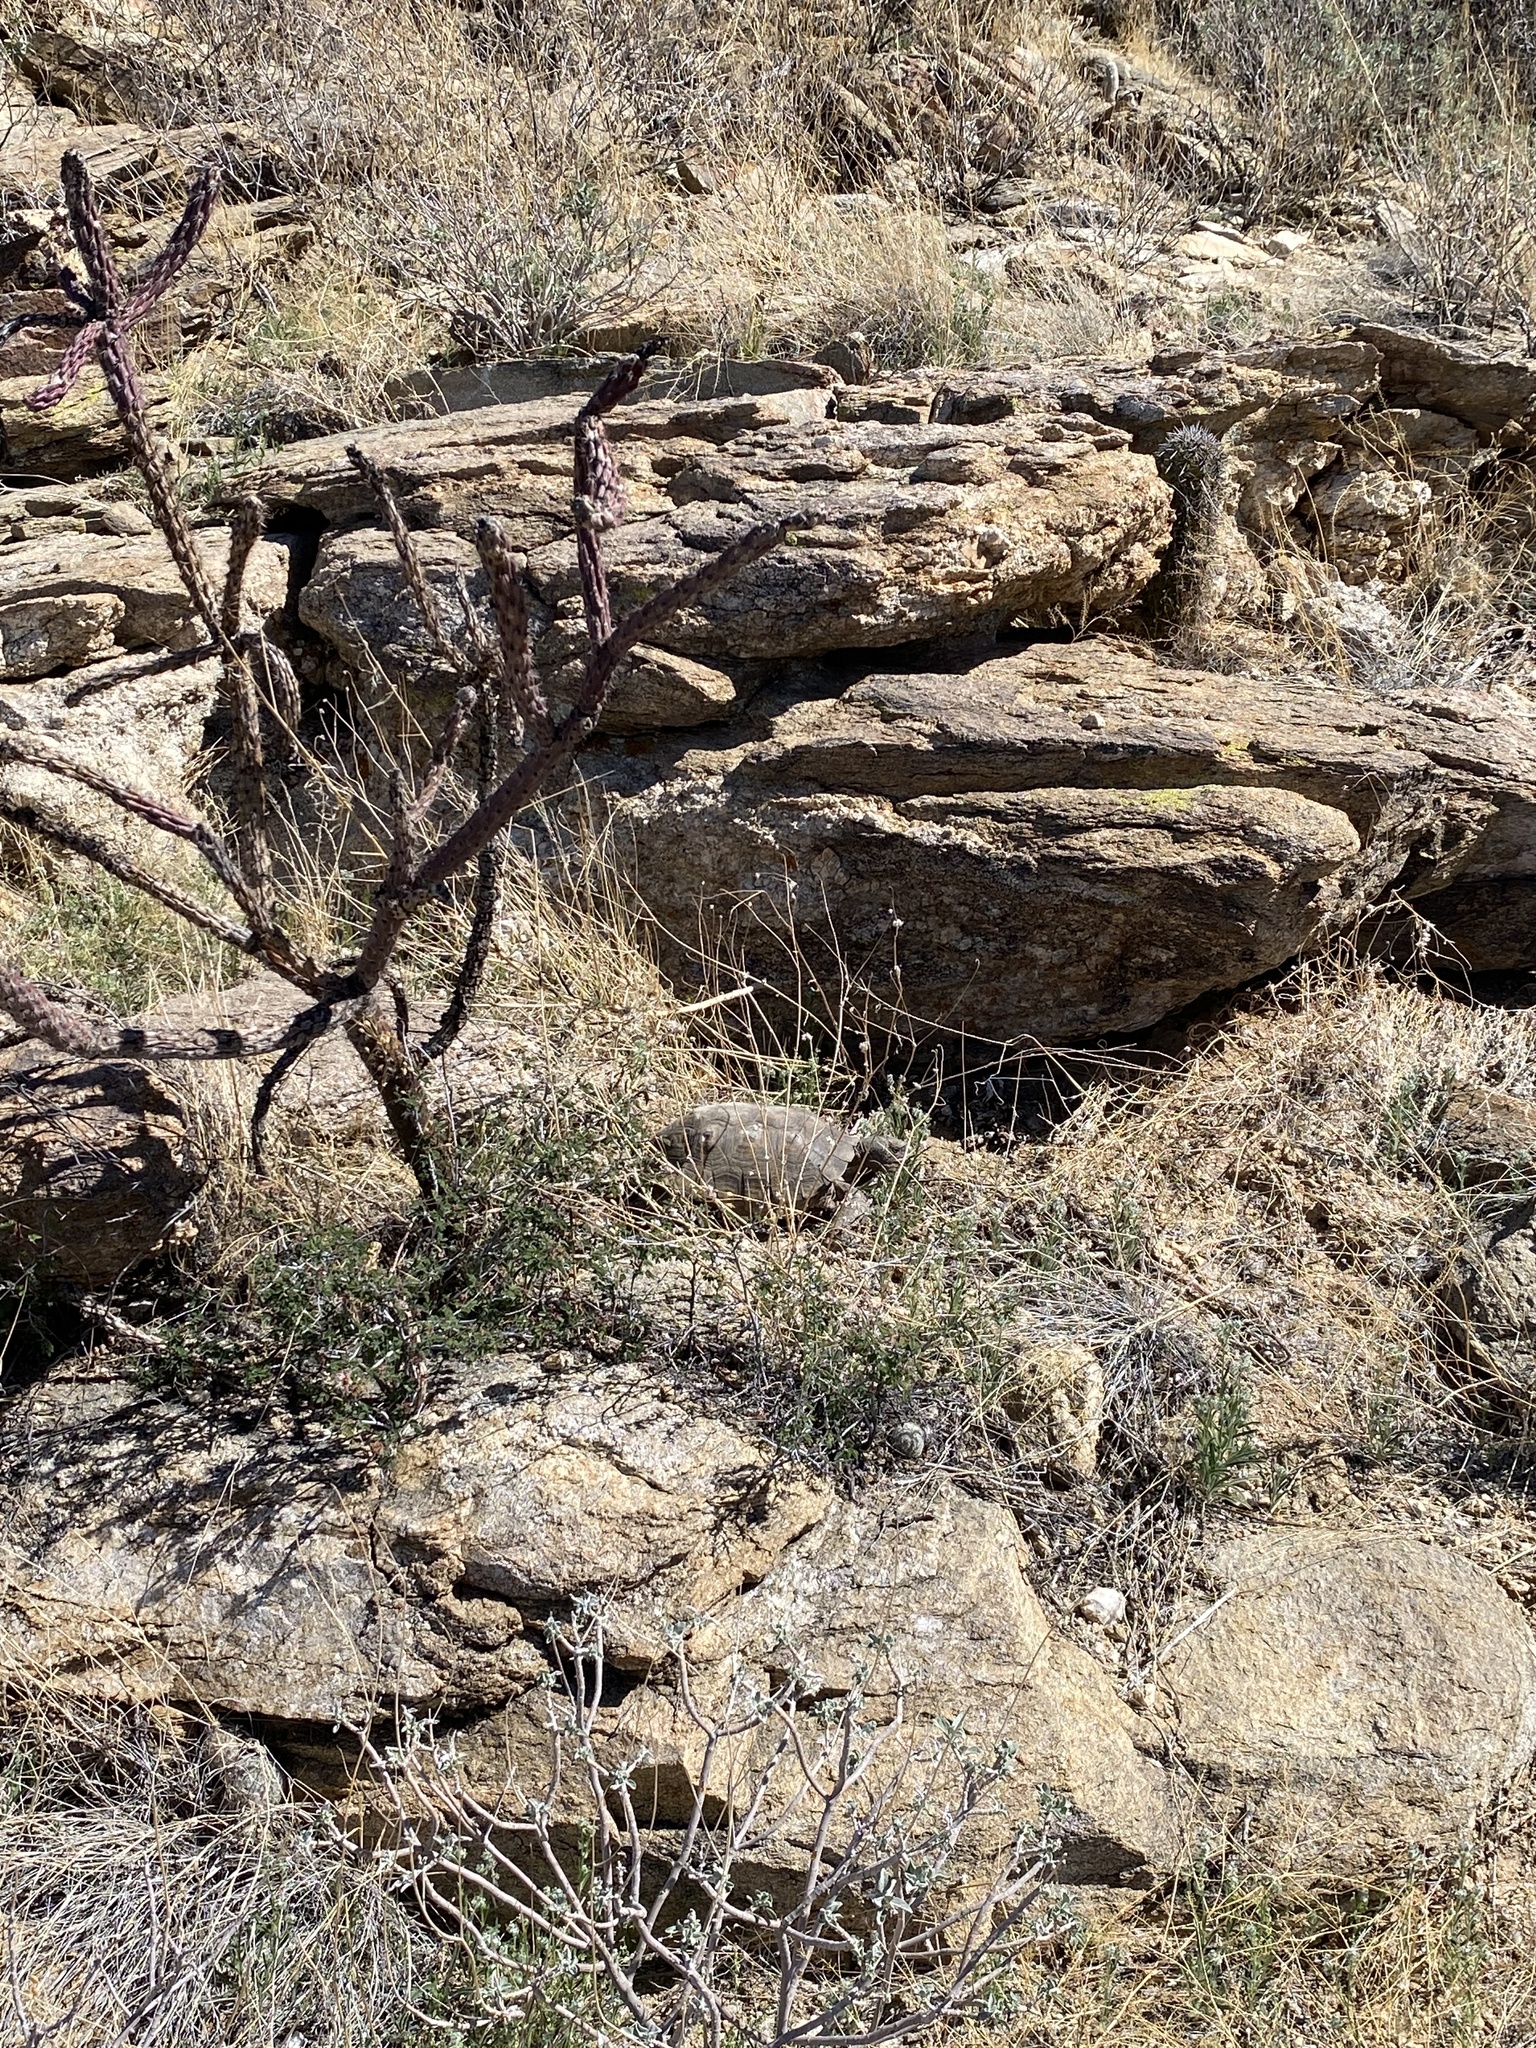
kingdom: Animalia
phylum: Chordata
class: Testudines
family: Testudinidae
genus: Gopherus
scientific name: Gopherus morafkai
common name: Sonoran desert tortoise
